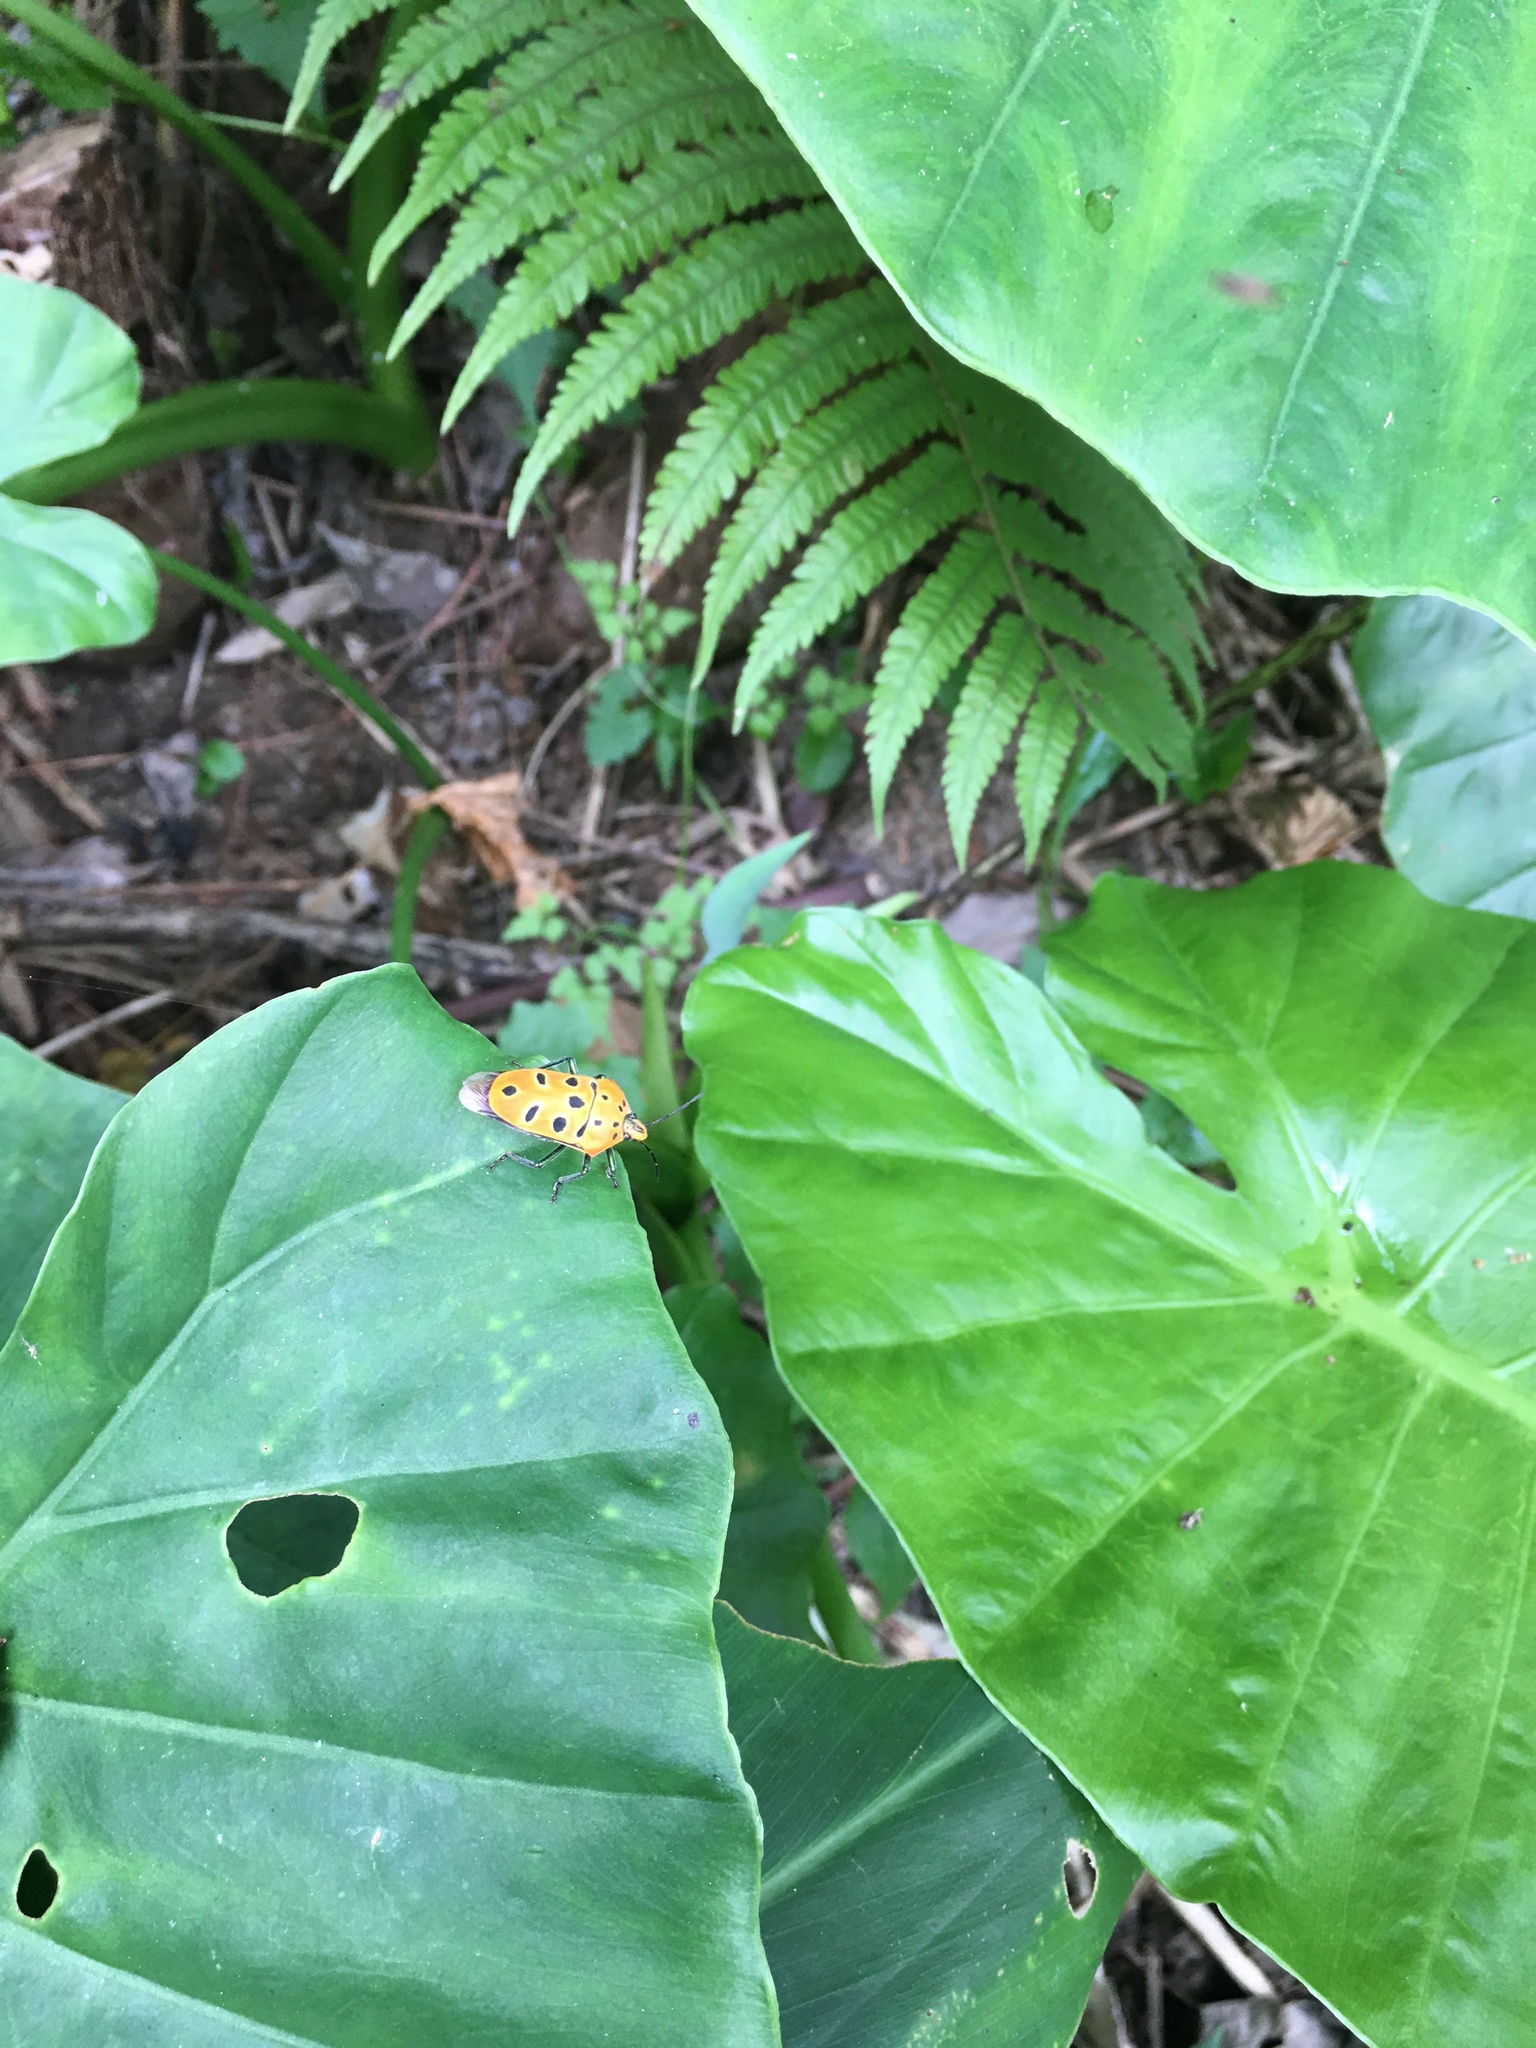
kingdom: Animalia
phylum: Arthropoda
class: Insecta
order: Hemiptera
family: Scutelleridae
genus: Cantao
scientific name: Cantao ocellatus
